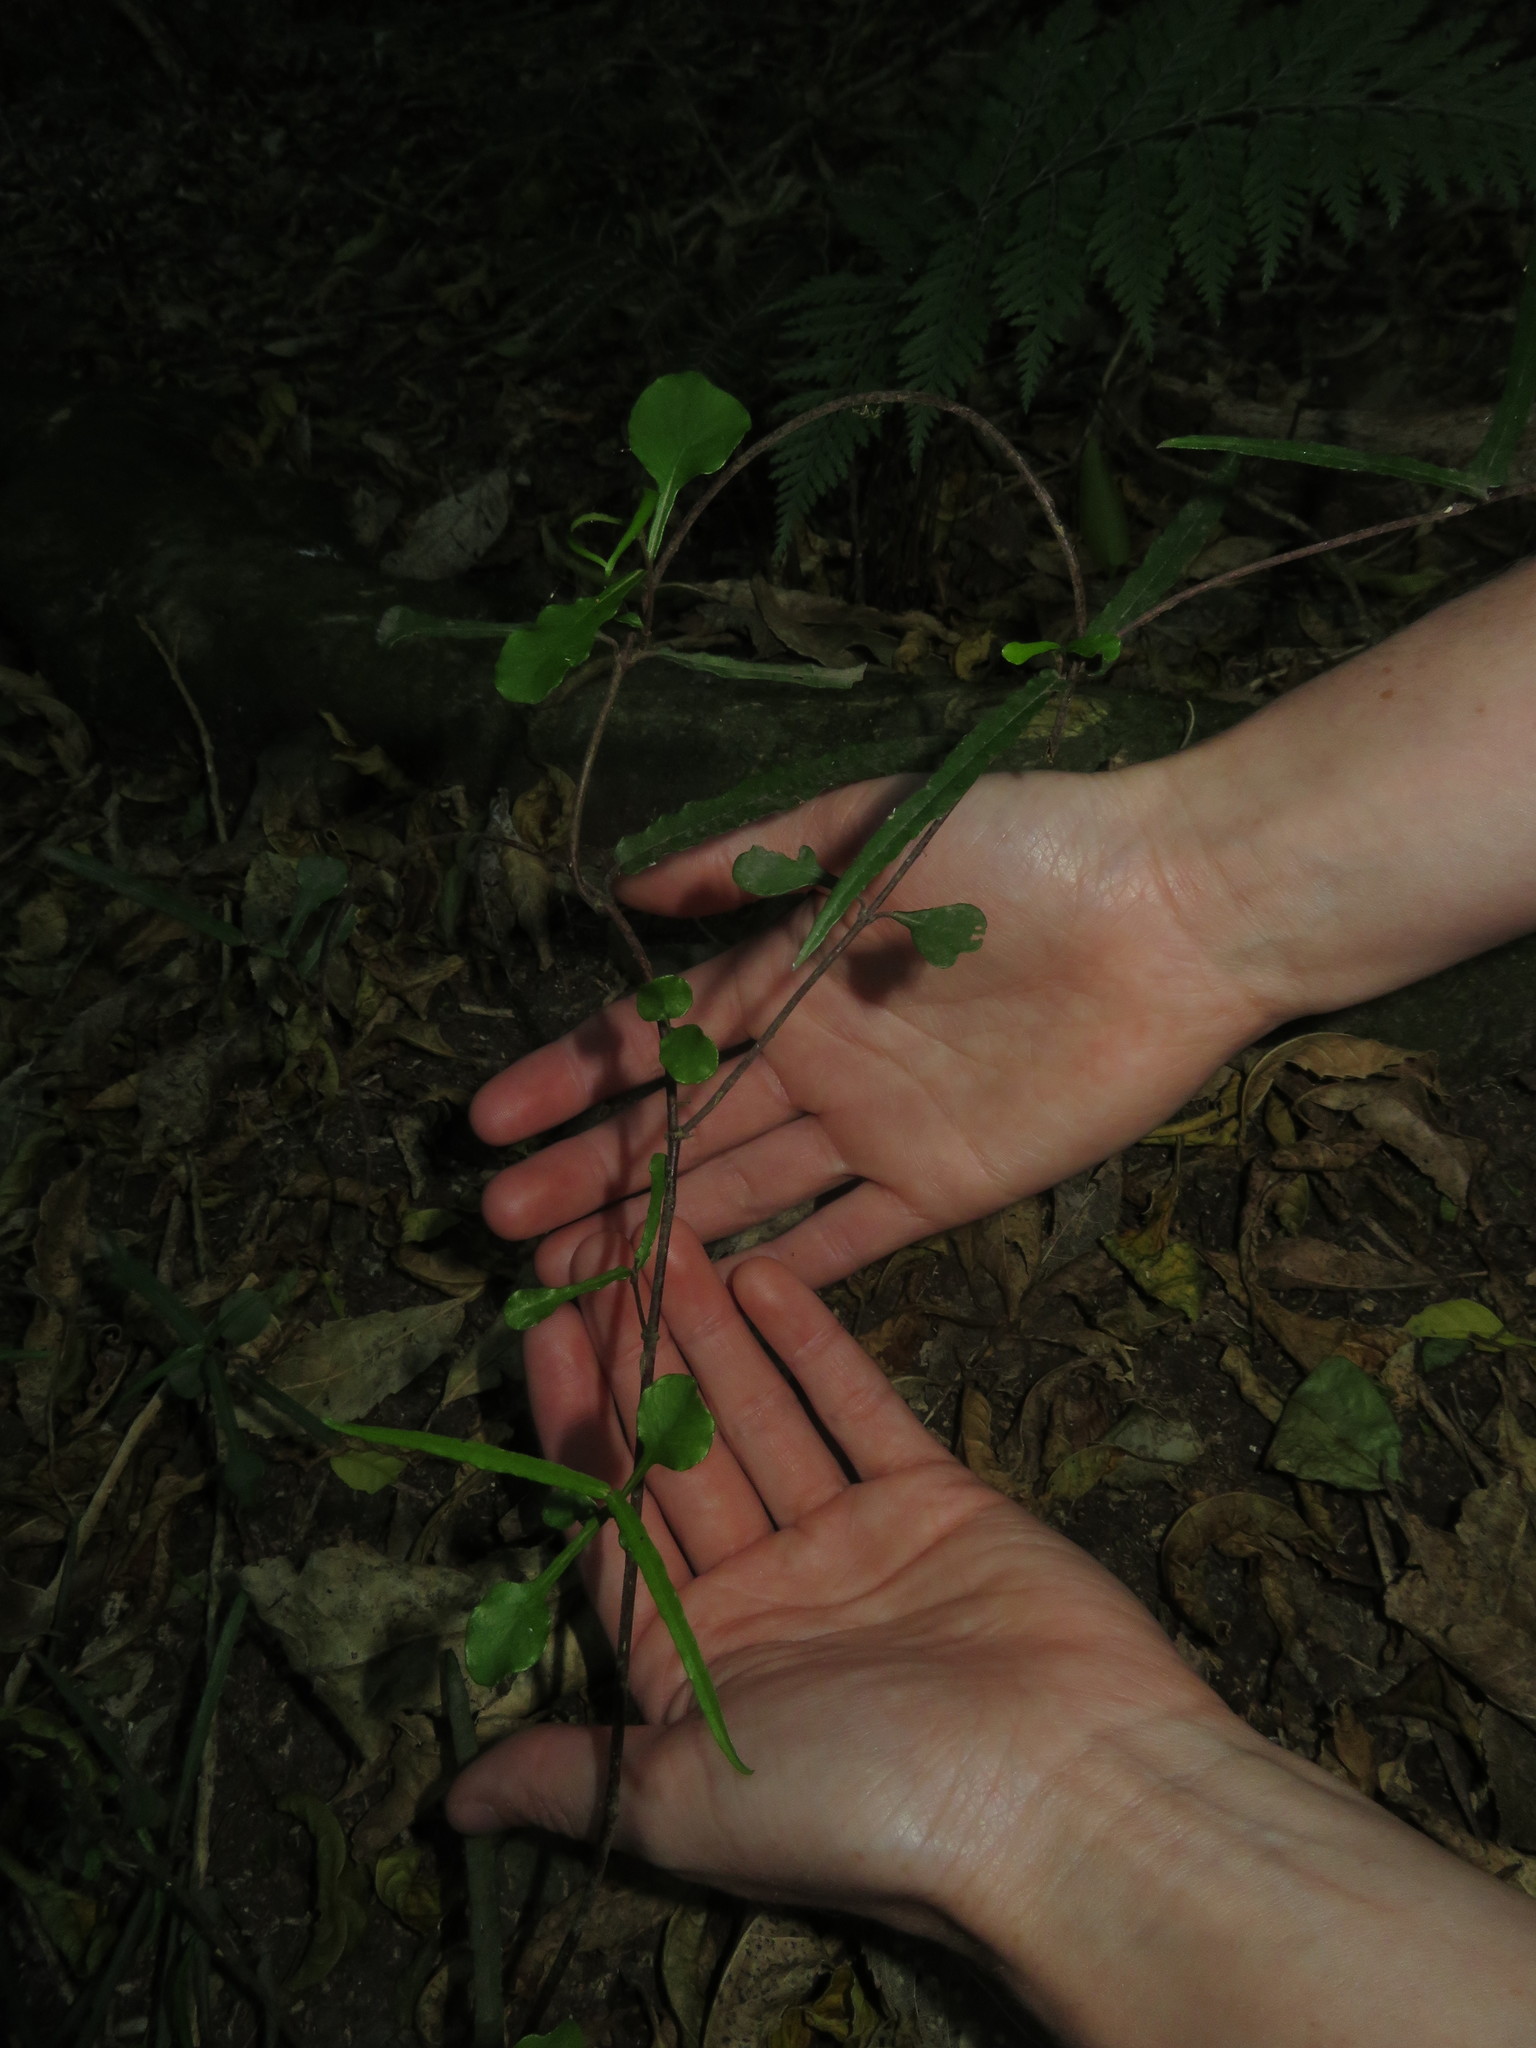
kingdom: Plantae
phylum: Tracheophyta
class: Magnoliopsida
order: Gentianales
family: Apocynaceae
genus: Parsonsia
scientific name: Parsonsia heterophylla
